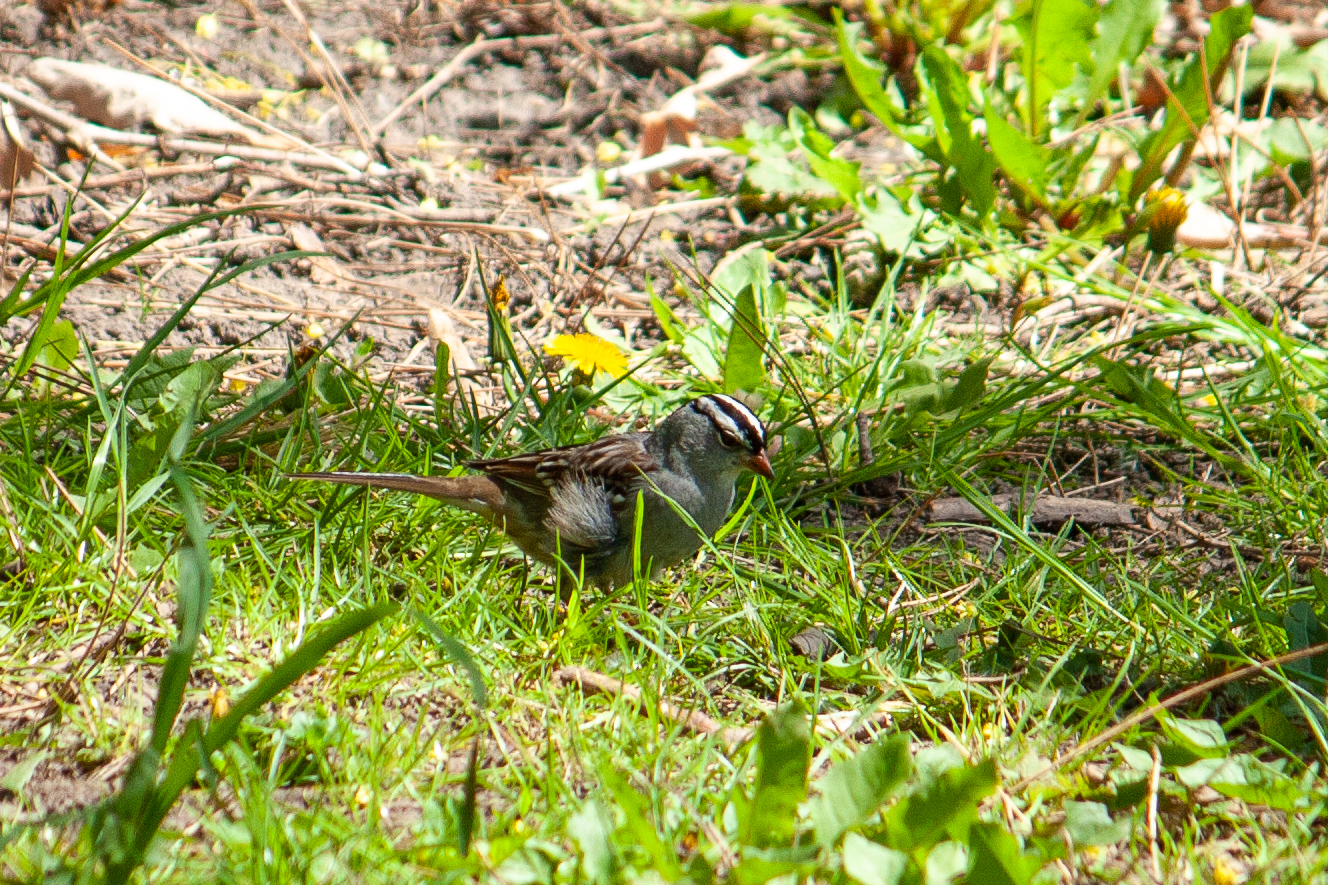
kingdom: Animalia
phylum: Chordata
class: Aves
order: Passeriformes
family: Passerellidae
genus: Zonotrichia
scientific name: Zonotrichia leucophrys
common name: White-crowned sparrow
